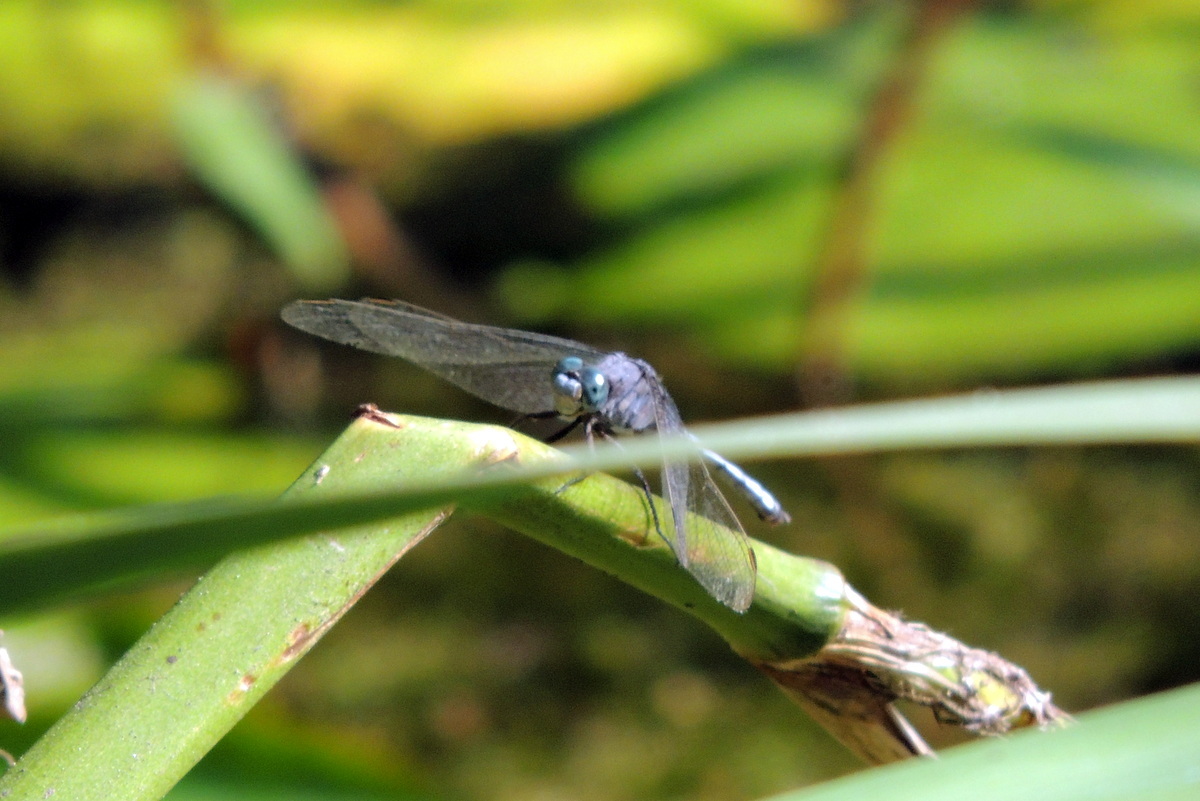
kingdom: Animalia
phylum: Arthropoda
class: Insecta
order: Odonata
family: Libellulidae
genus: Orthetrum
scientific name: Orthetrum chrysostigma
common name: Epaulet skimmer
